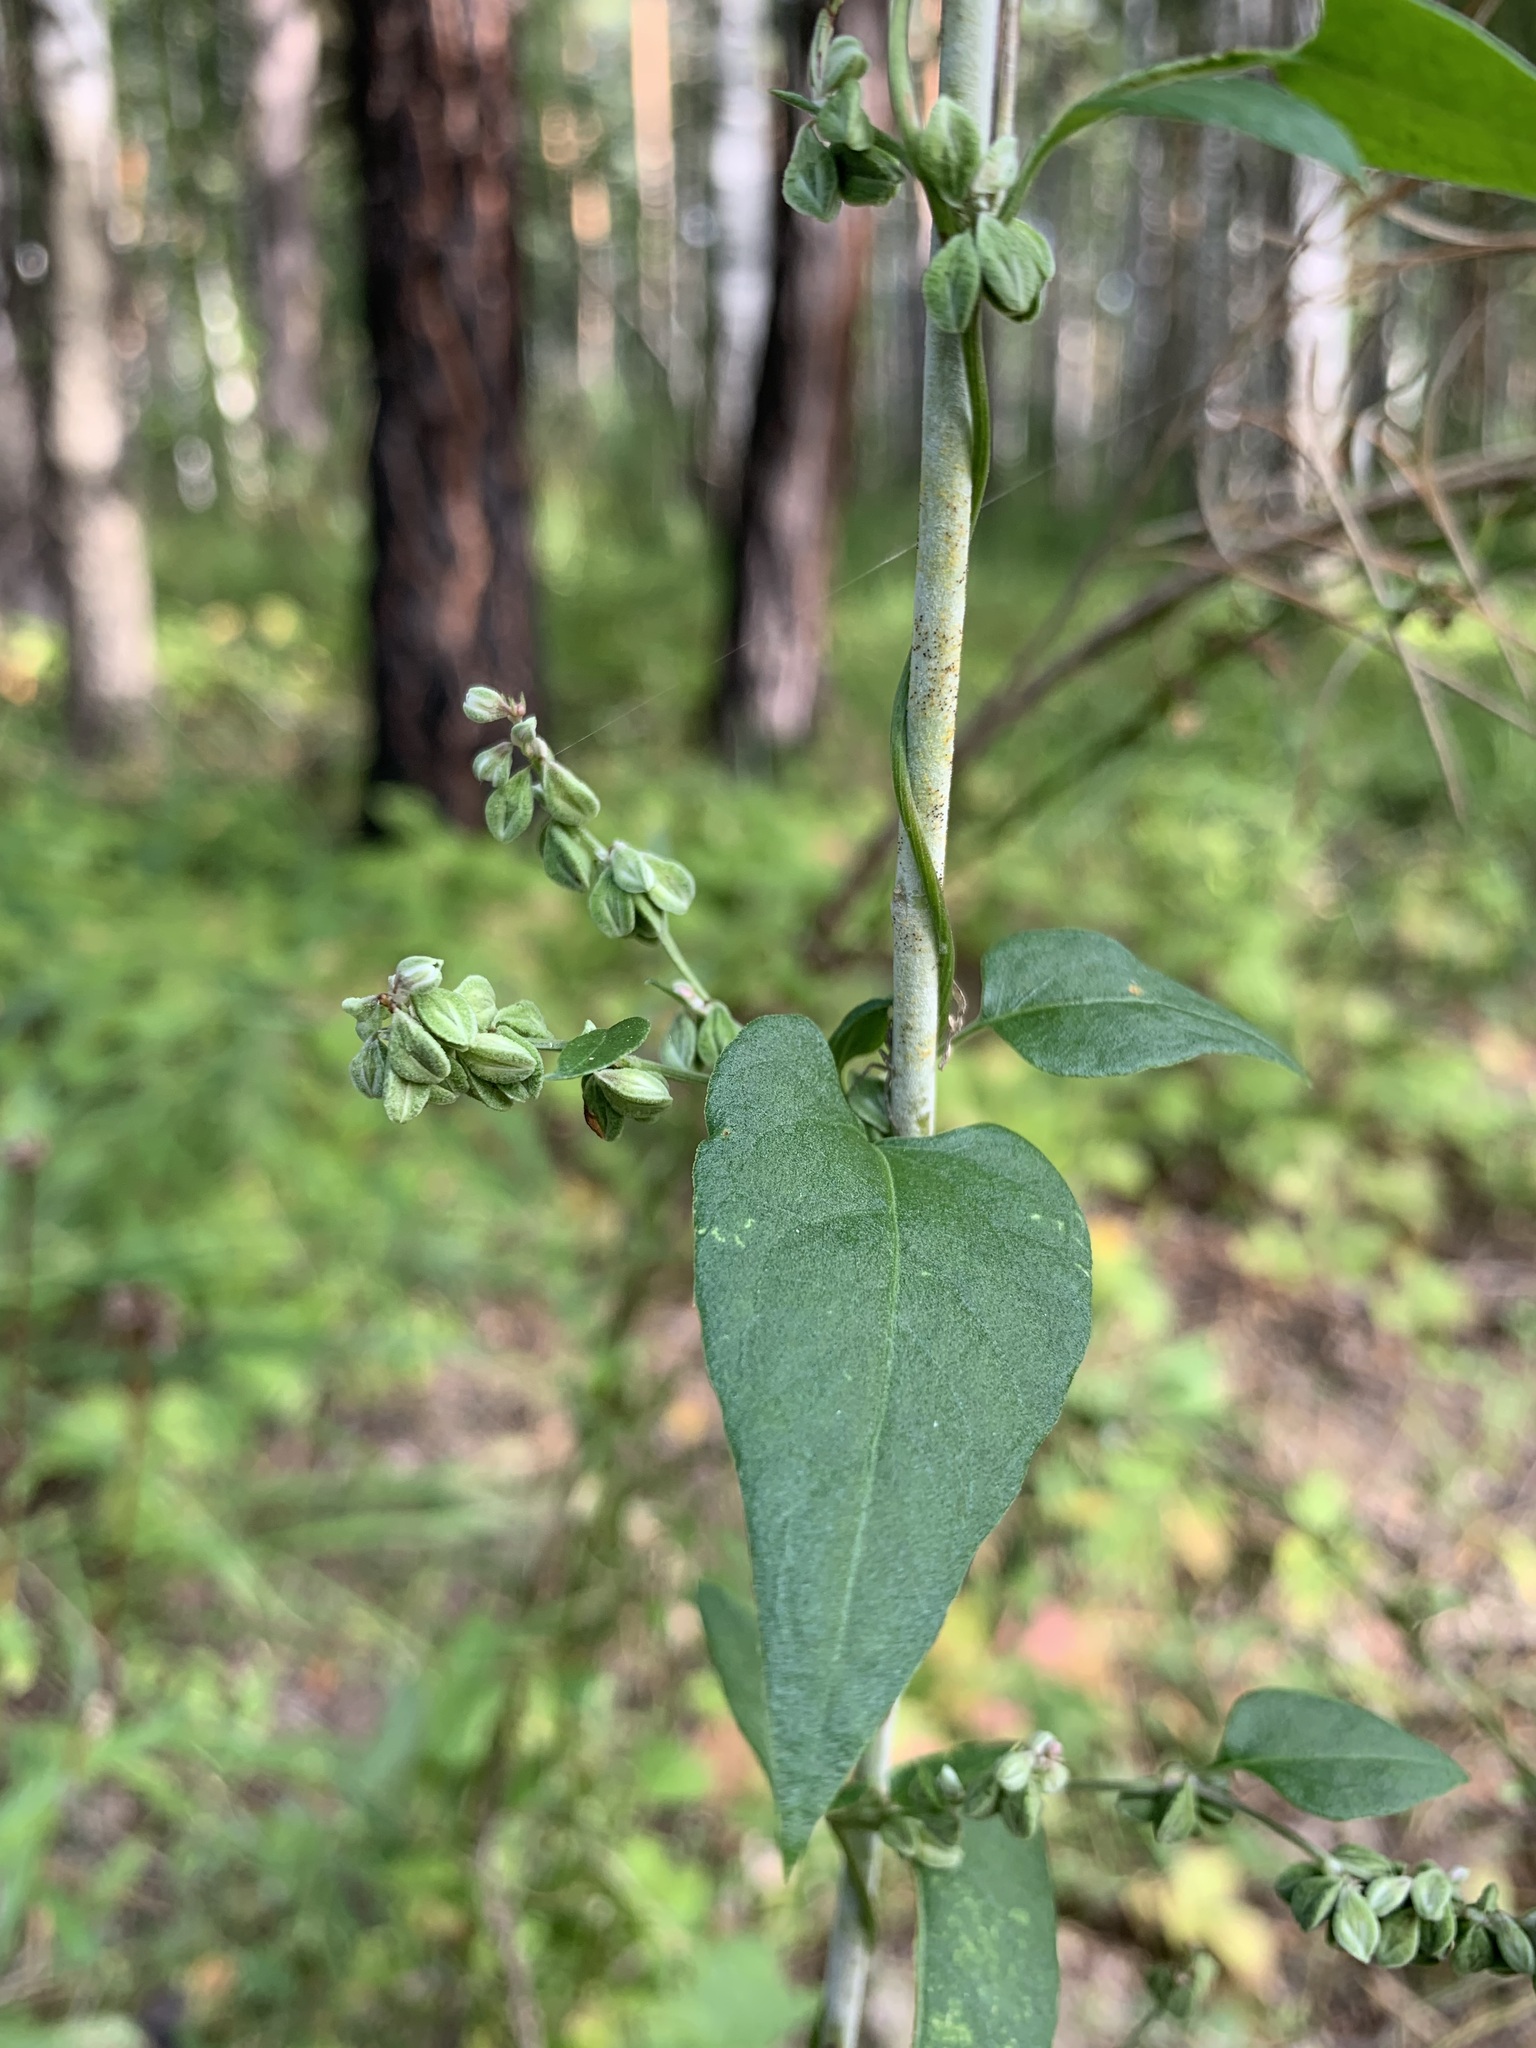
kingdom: Plantae
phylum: Tracheophyta
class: Magnoliopsida
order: Caryophyllales
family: Polygonaceae
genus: Fallopia
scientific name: Fallopia convolvulus
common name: Black bindweed
